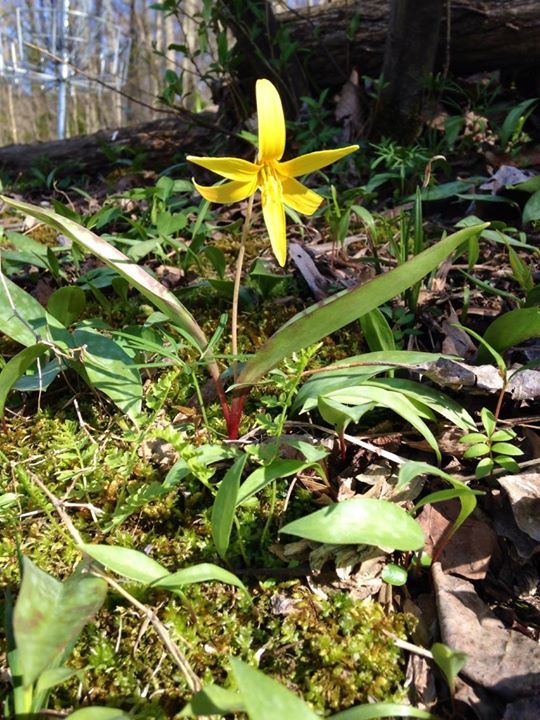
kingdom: Plantae
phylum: Tracheophyta
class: Liliopsida
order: Liliales
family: Liliaceae
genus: Erythronium
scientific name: Erythronium americanum
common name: Yellow adder's-tongue
